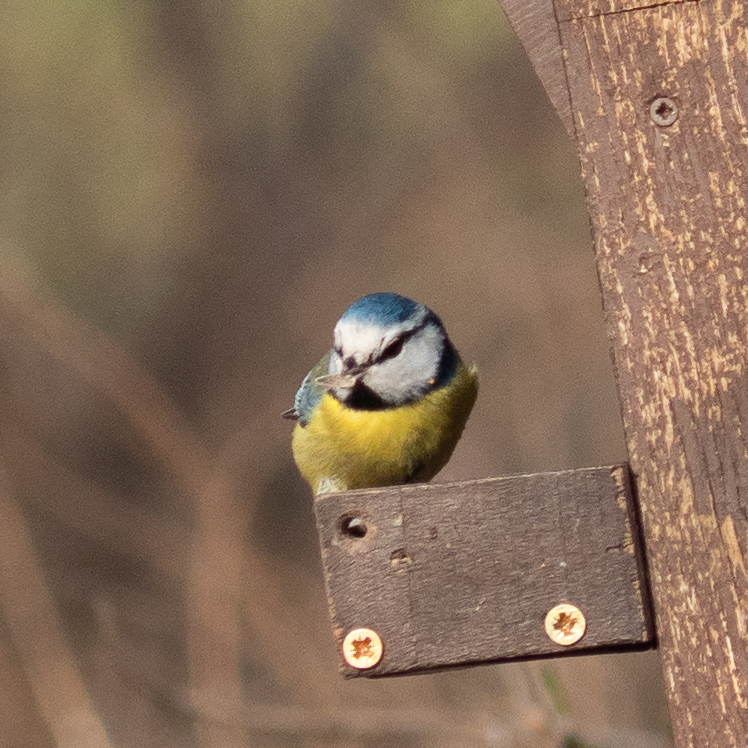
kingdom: Animalia
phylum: Chordata
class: Aves
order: Passeriformes
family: Paridae
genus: Cyanistes
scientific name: Cyanistes caeruleus
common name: Eurasian blue tit
